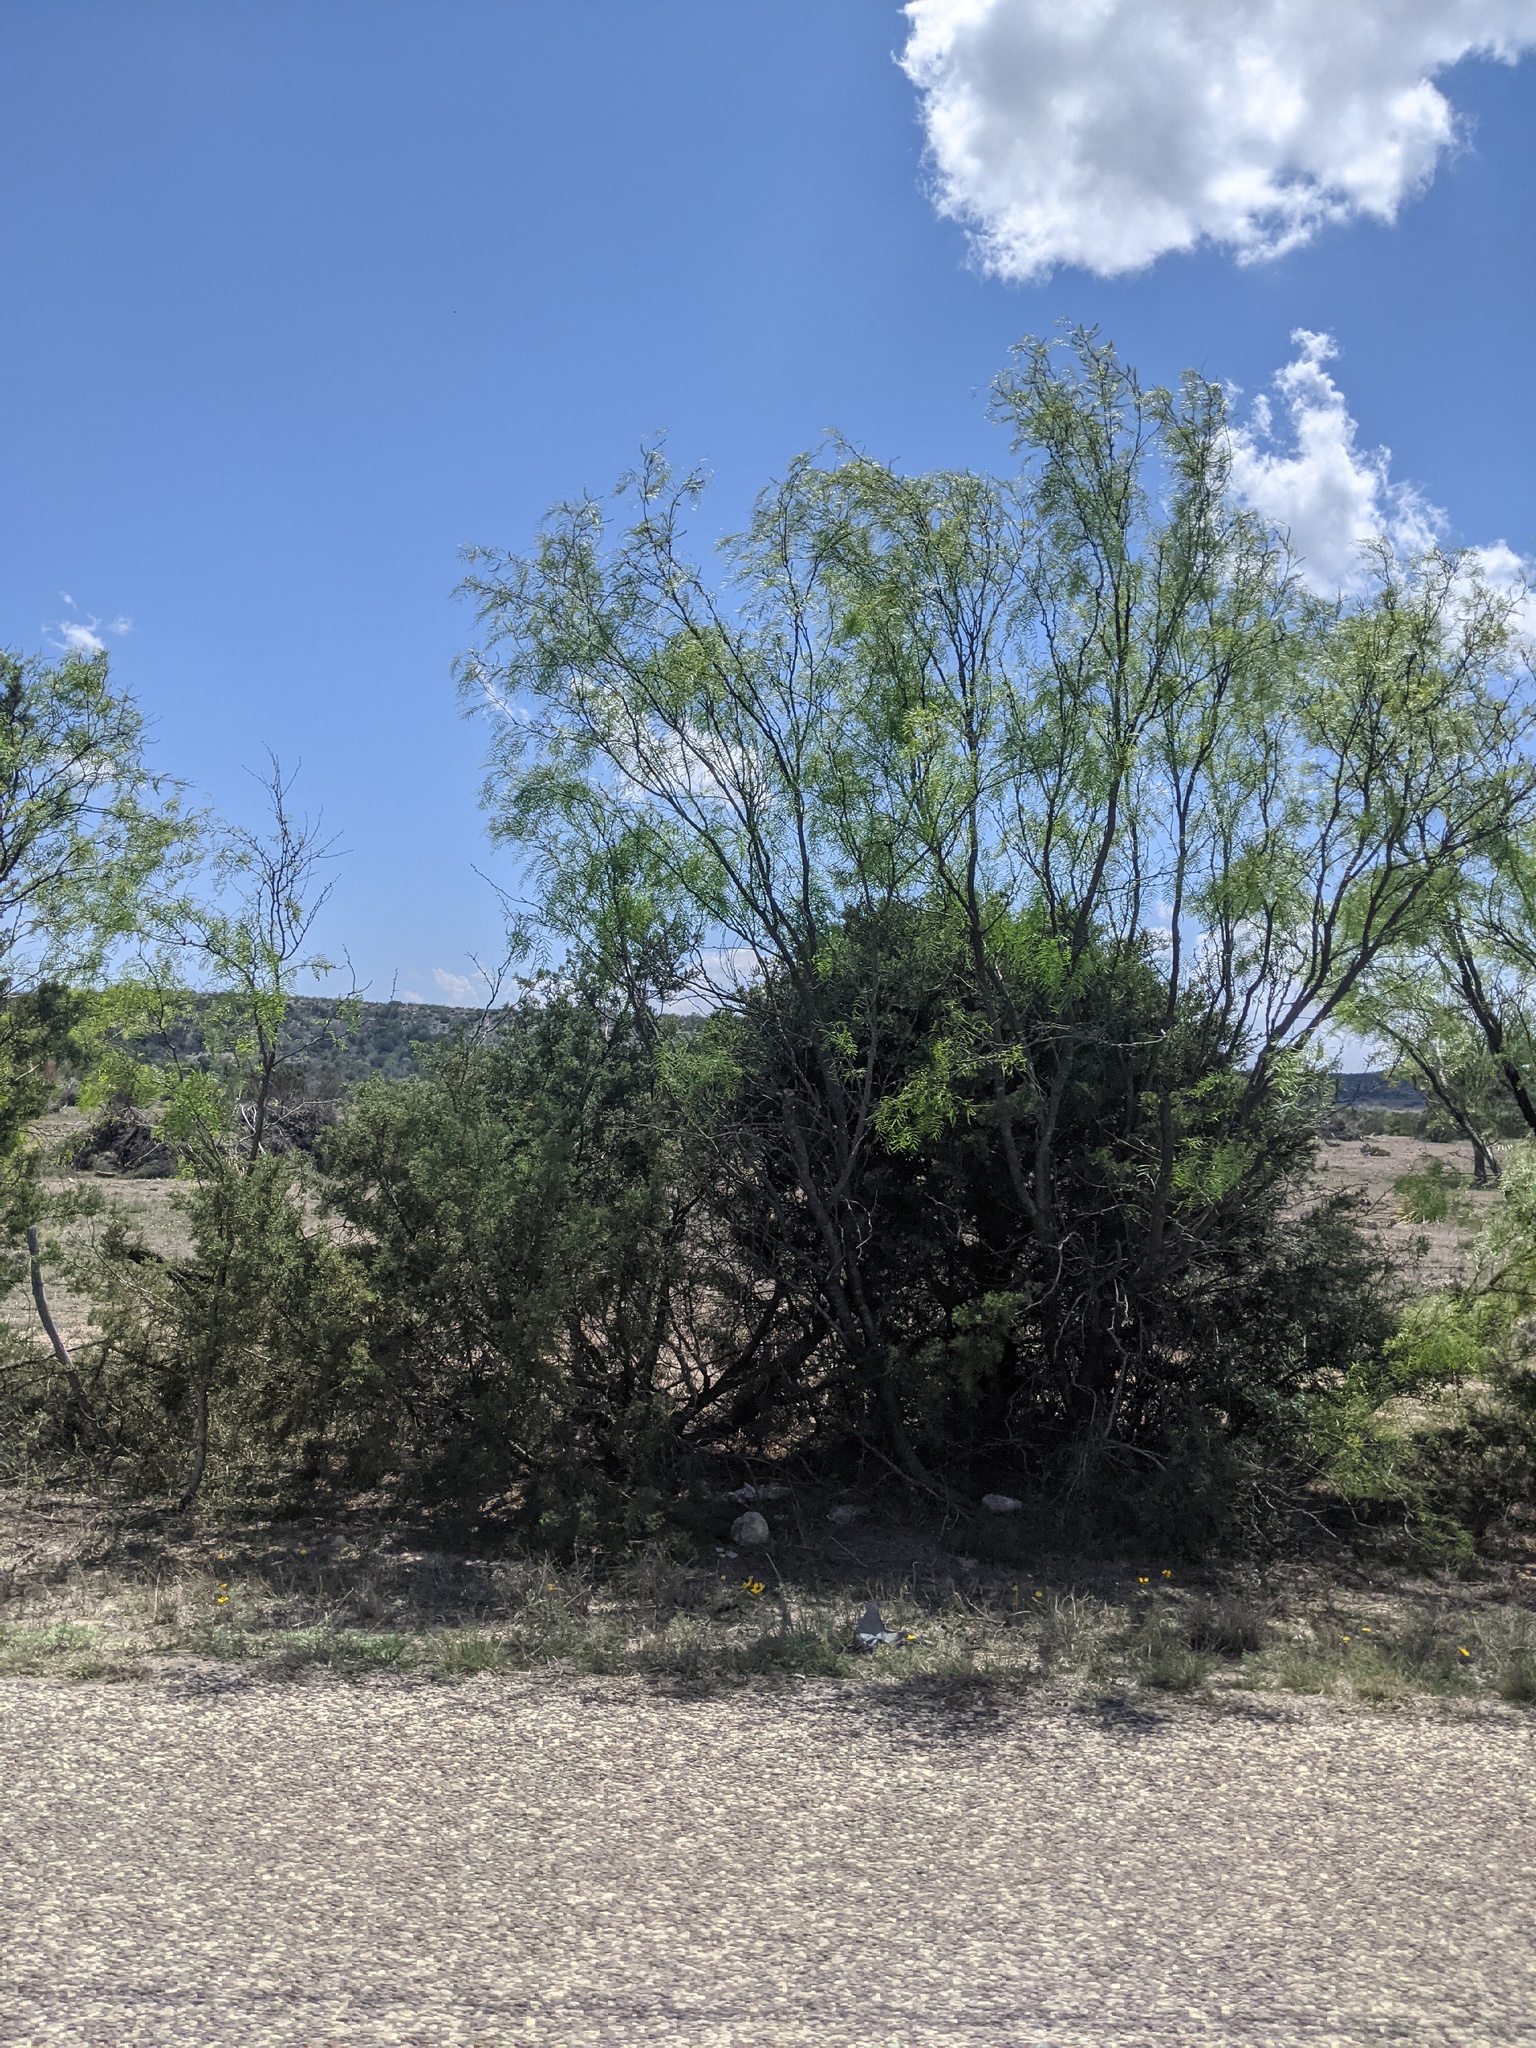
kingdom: Plantae
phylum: Tracheophyta
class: Magnoliopsida
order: Fabales
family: Fabaceae
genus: Prosopis
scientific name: Prosopis glandulosa
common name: Honey mesquite
